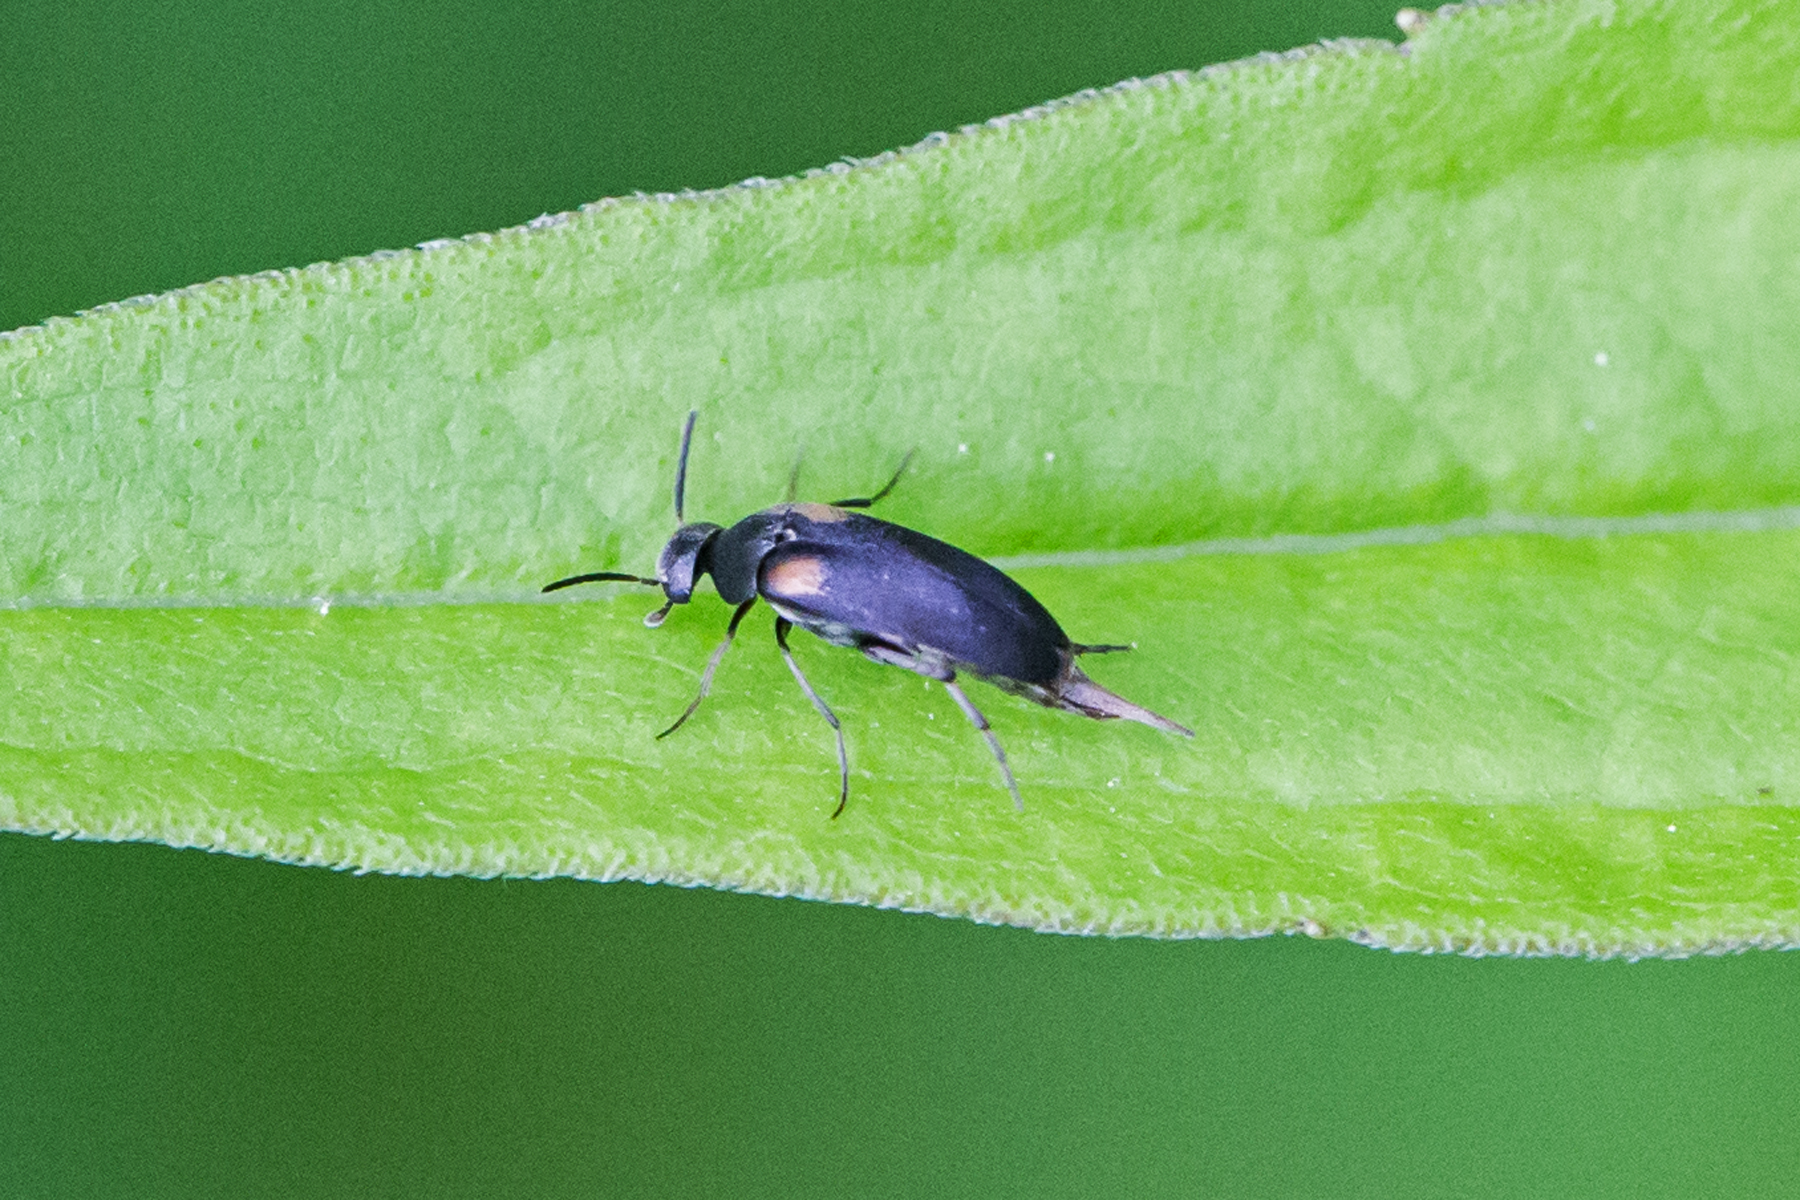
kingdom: Animalia
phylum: Arthropoda
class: Insecta
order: Coleoptera
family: Mordellidae
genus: Mordellochroa
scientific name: Mordellochroa scapularis
